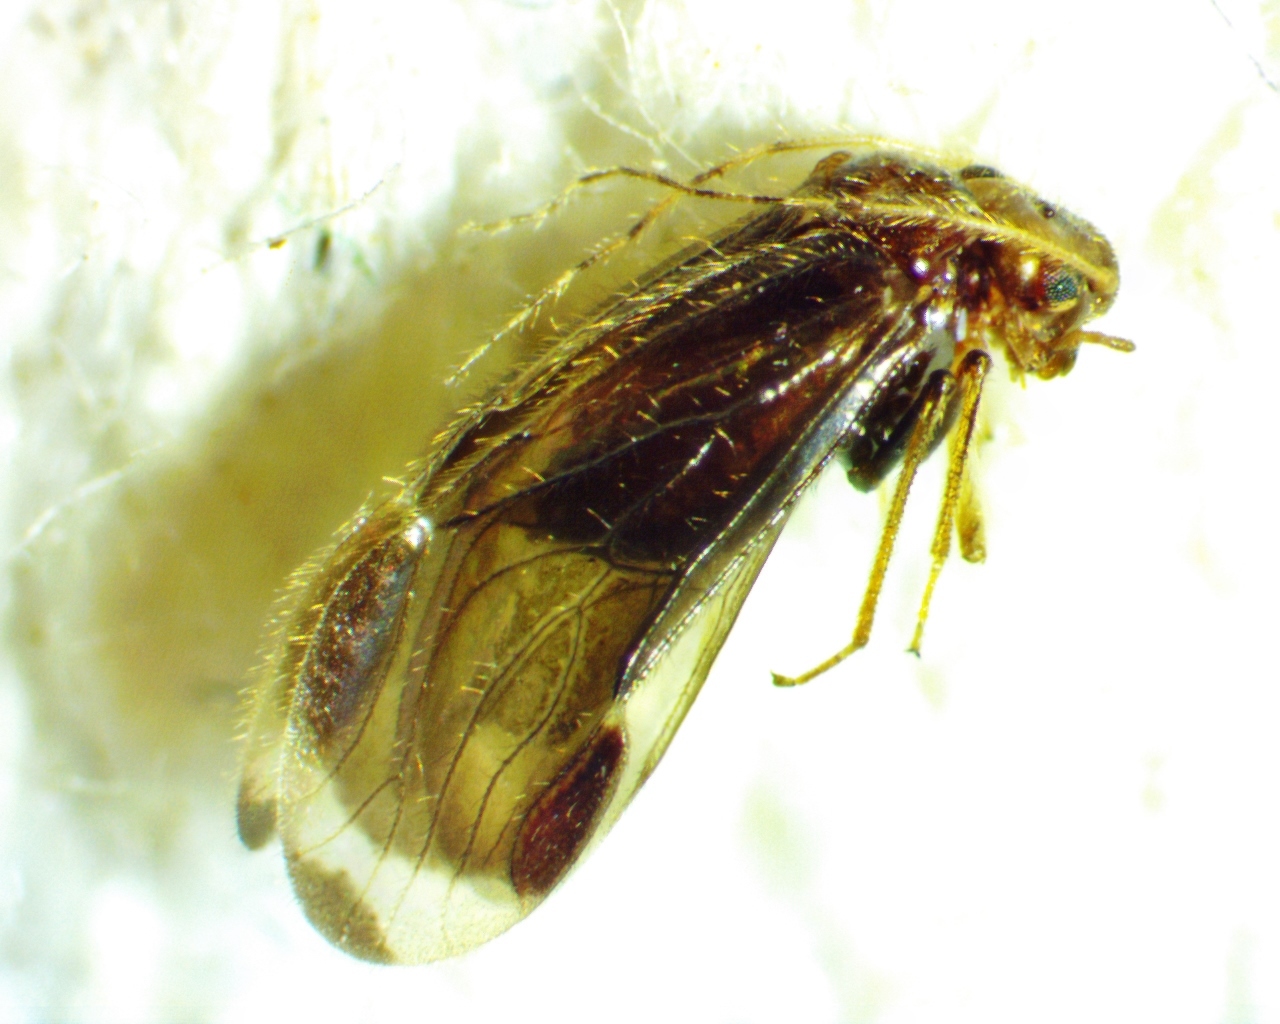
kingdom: Animalia
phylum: Arthropoda
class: Insecta
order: Psocodea
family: Amphipsocidae
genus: Polypsocus
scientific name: Polypsocus corruptus
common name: Corrupt barklouse
